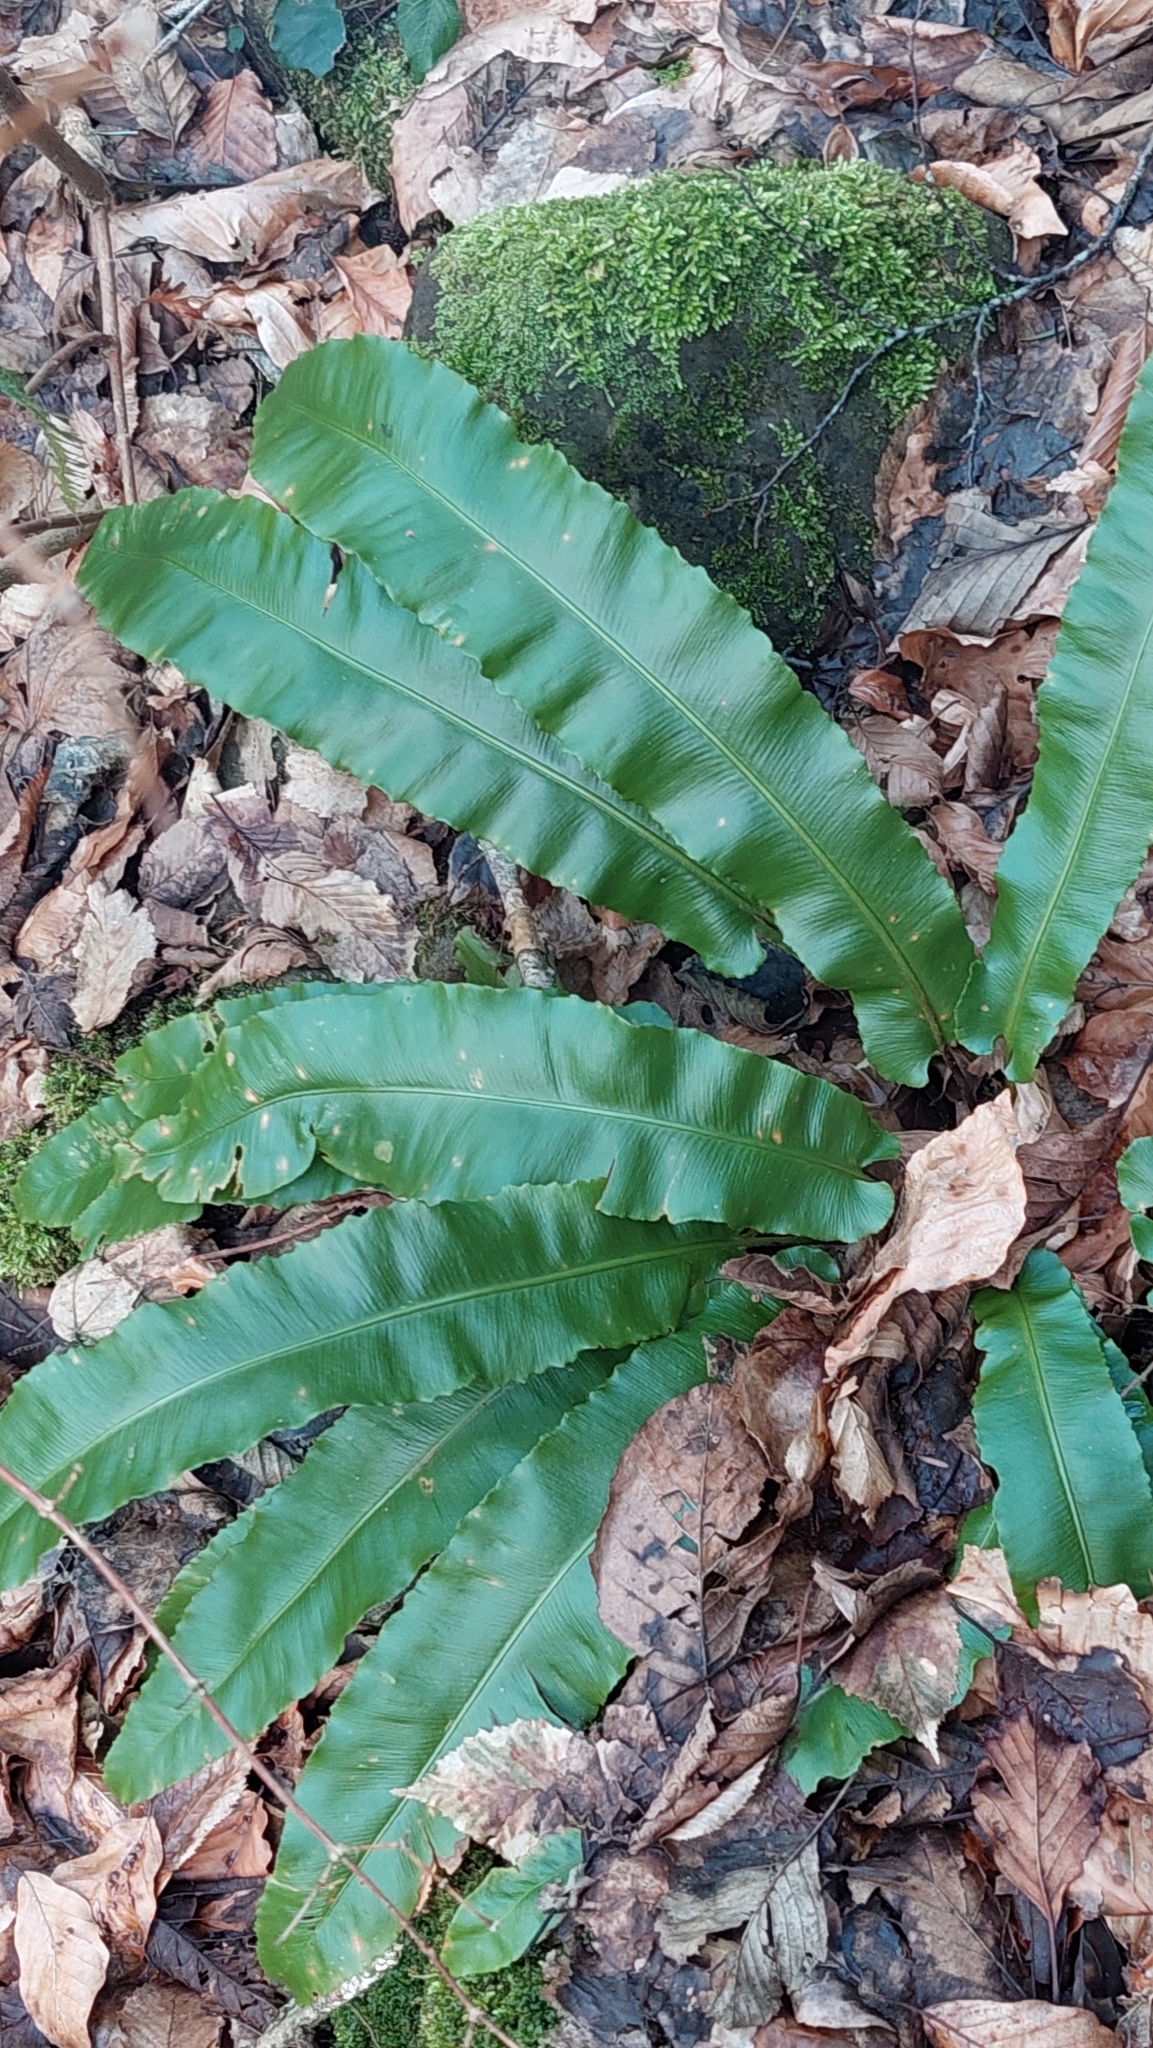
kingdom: Plantae
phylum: Tracheophyta
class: Polypodiopsida
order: Polypodiales
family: Aspleniaceae
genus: Asplenium
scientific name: Asplenium scolopendrium
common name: Hart's-tongue fern
